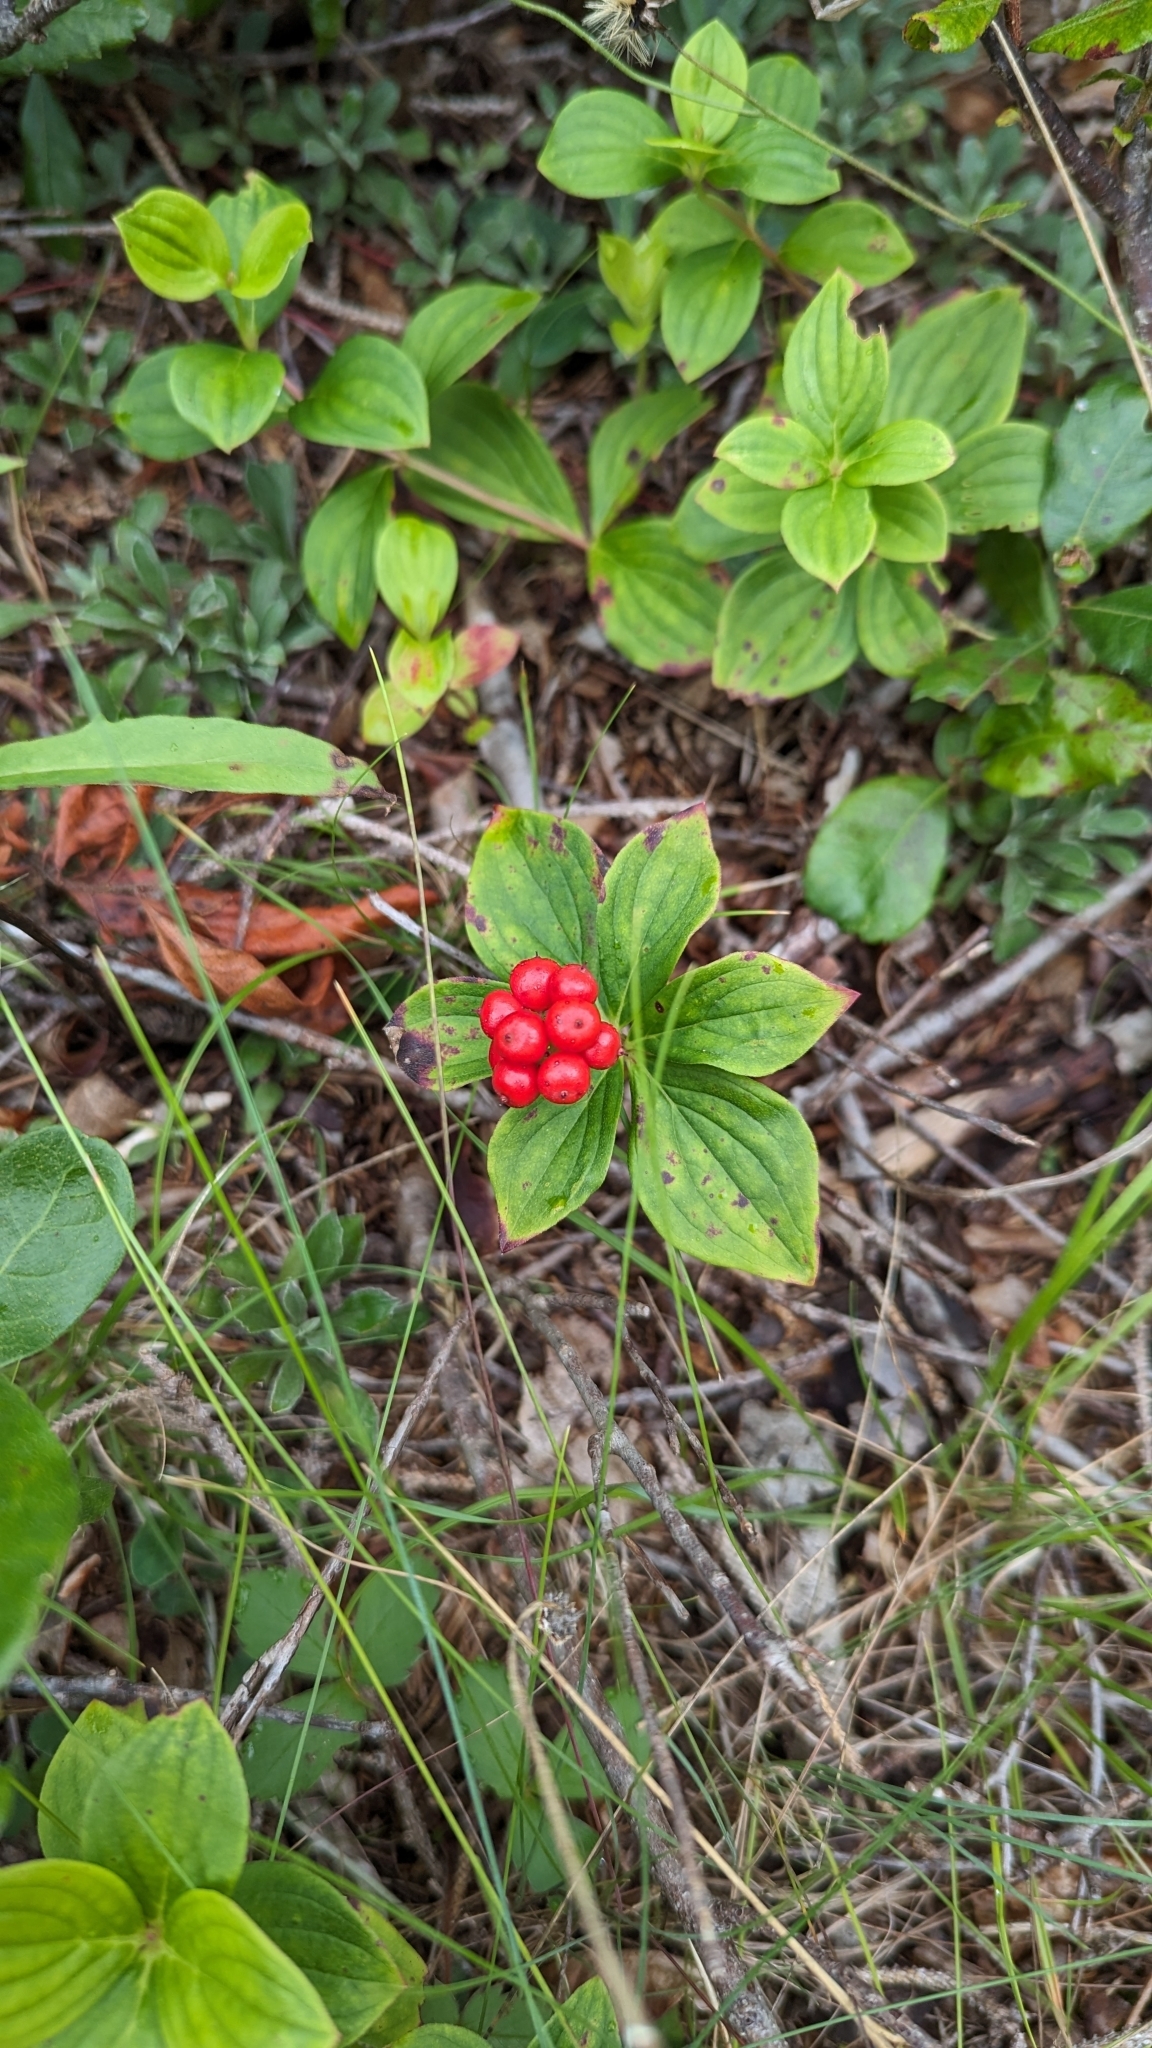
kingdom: Plantae
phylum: Tracheophyta
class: Magnoliopsida
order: Cornales
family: Cornaceae
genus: Cornus
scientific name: Cornus canadensis
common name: Creeping dogwood
